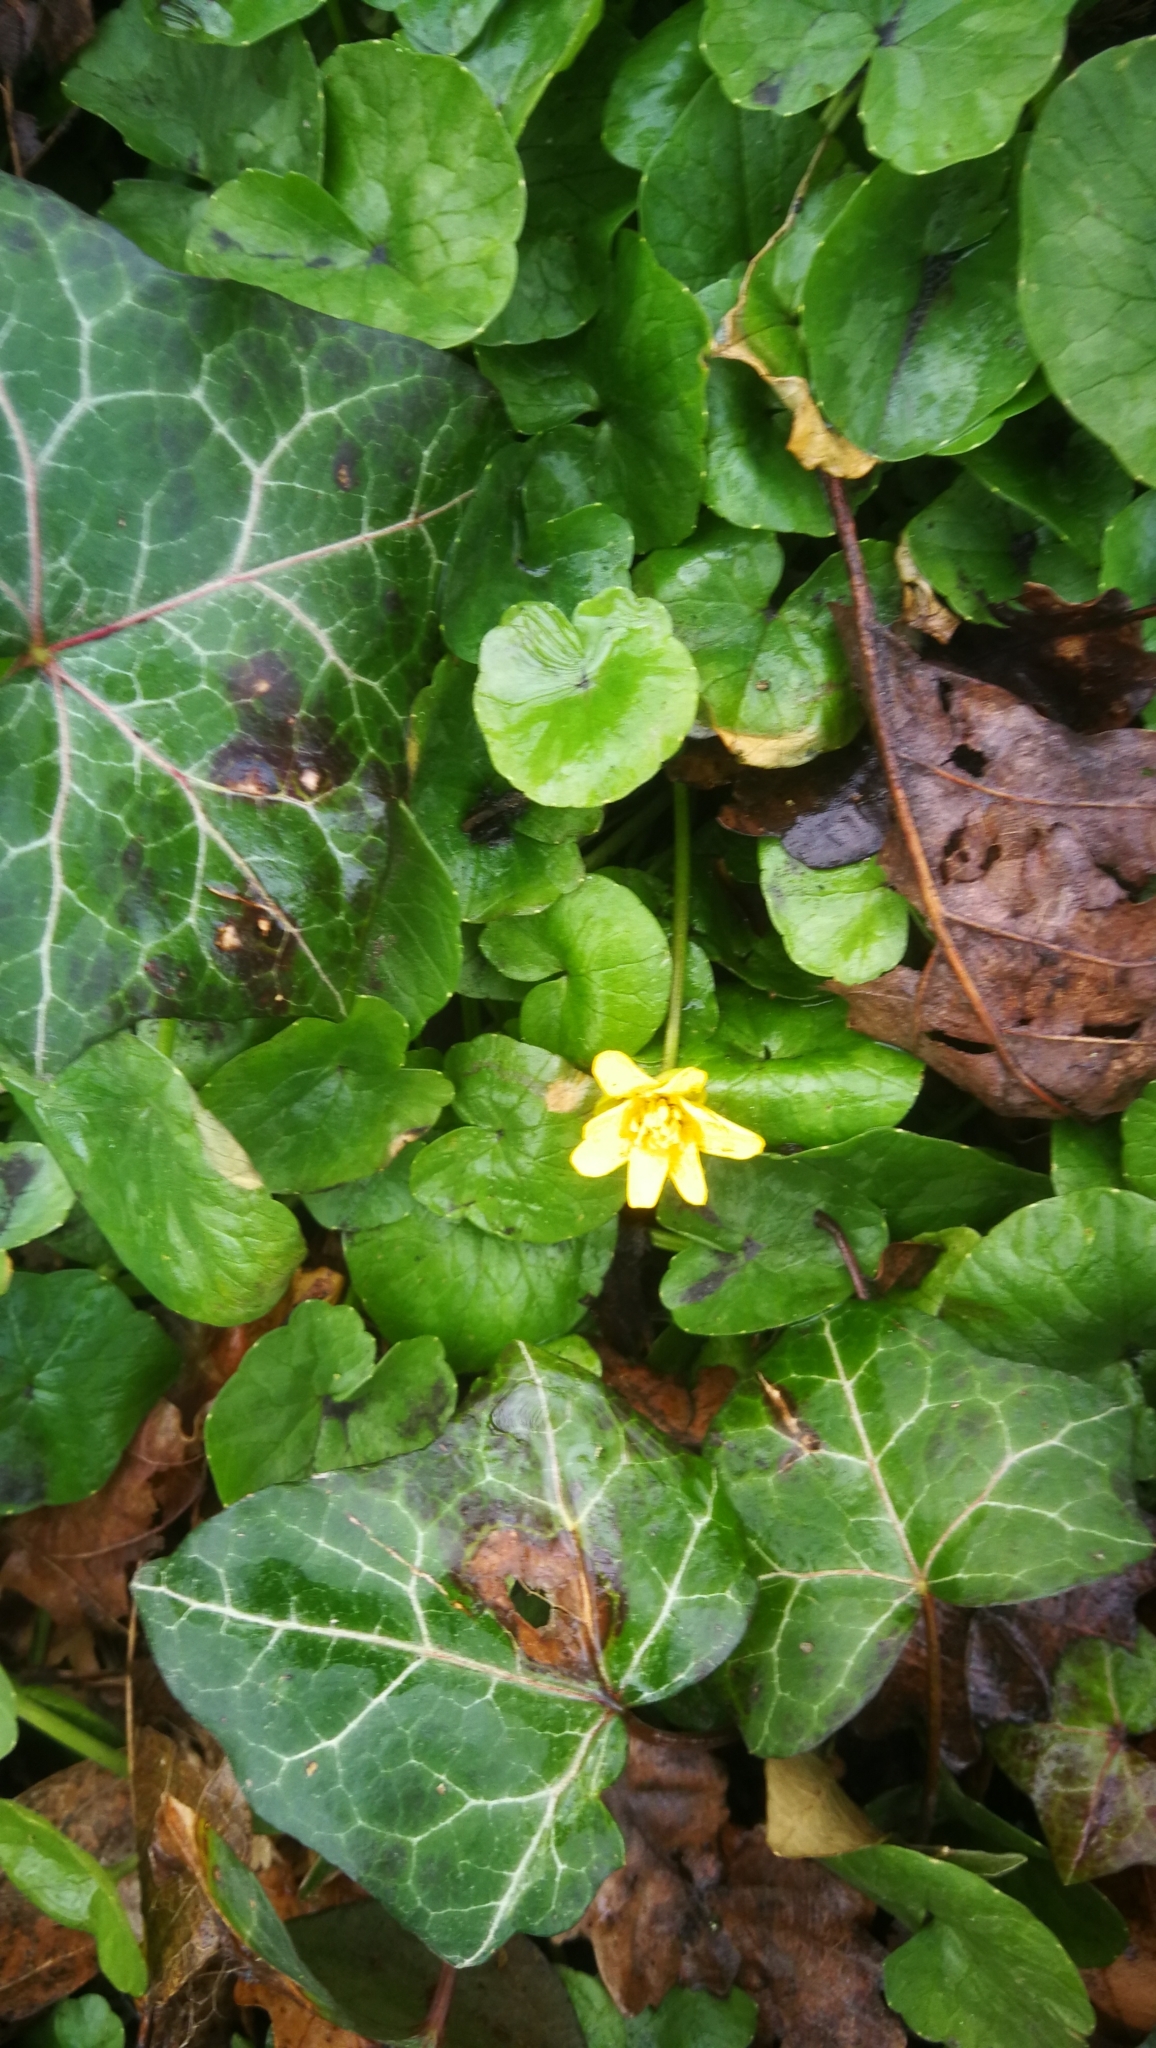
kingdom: Plantae
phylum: Tracheophyta
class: Magnoliopsida
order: Ranunculales
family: Ranunculaceae
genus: Ficaria
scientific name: Ficaria verna
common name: Lesser celandine
